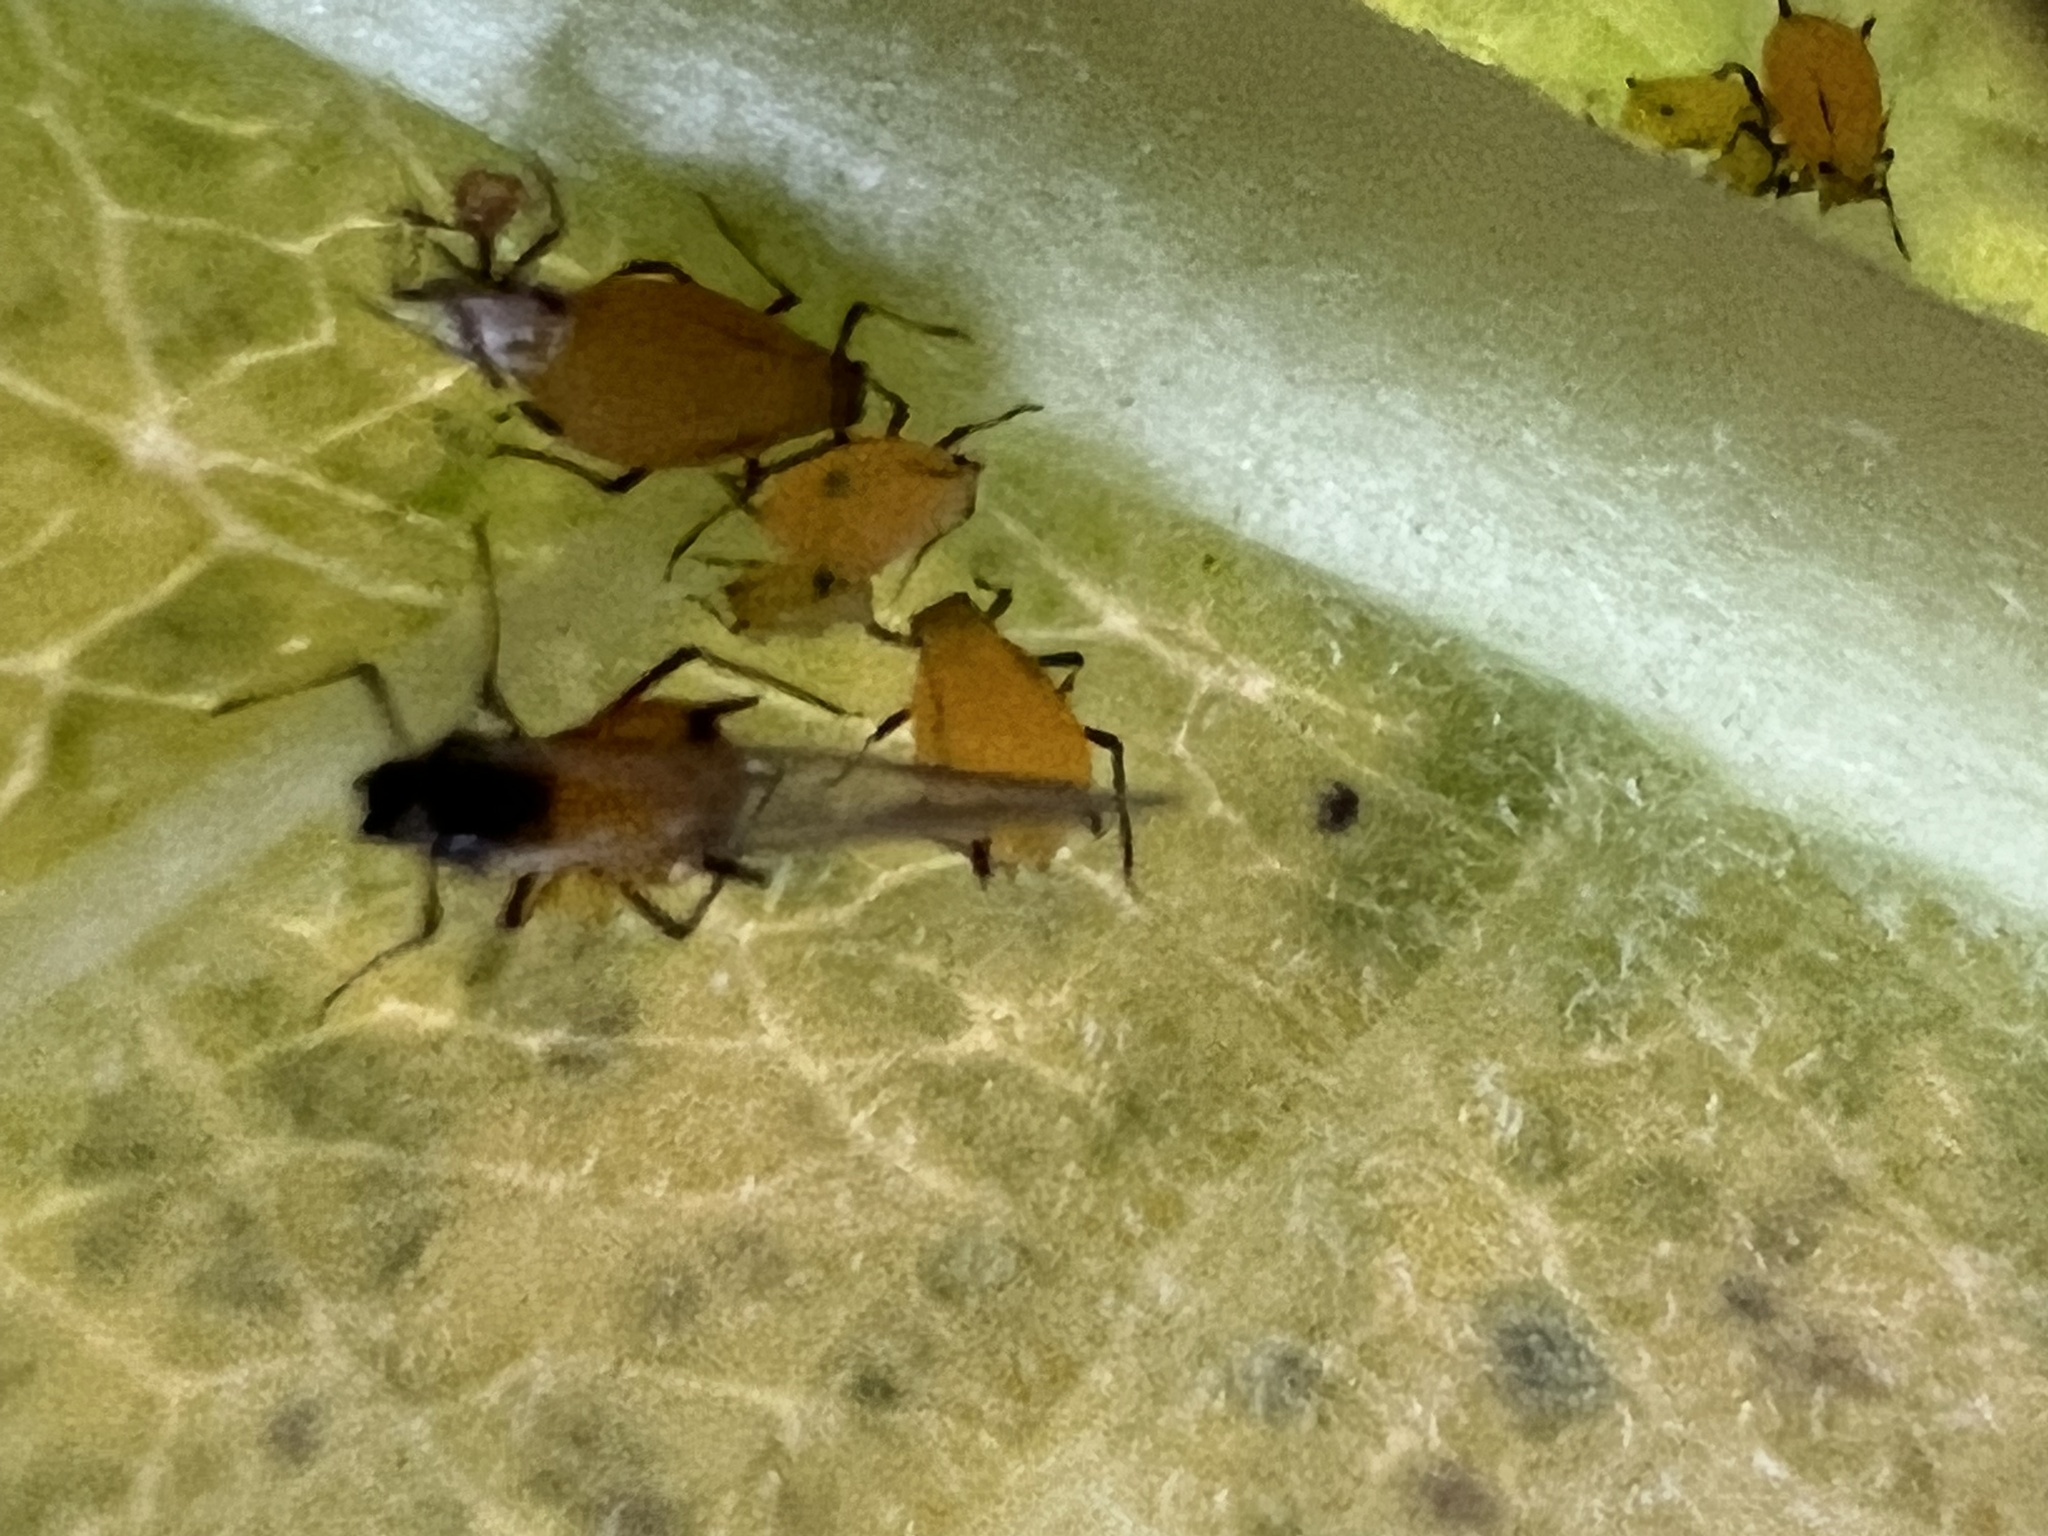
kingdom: Animalia
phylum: Arthropoda
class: Insecta
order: Hemiptera
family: Aphididae
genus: Aphis
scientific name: Aphis nerii
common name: Oleander aphid
